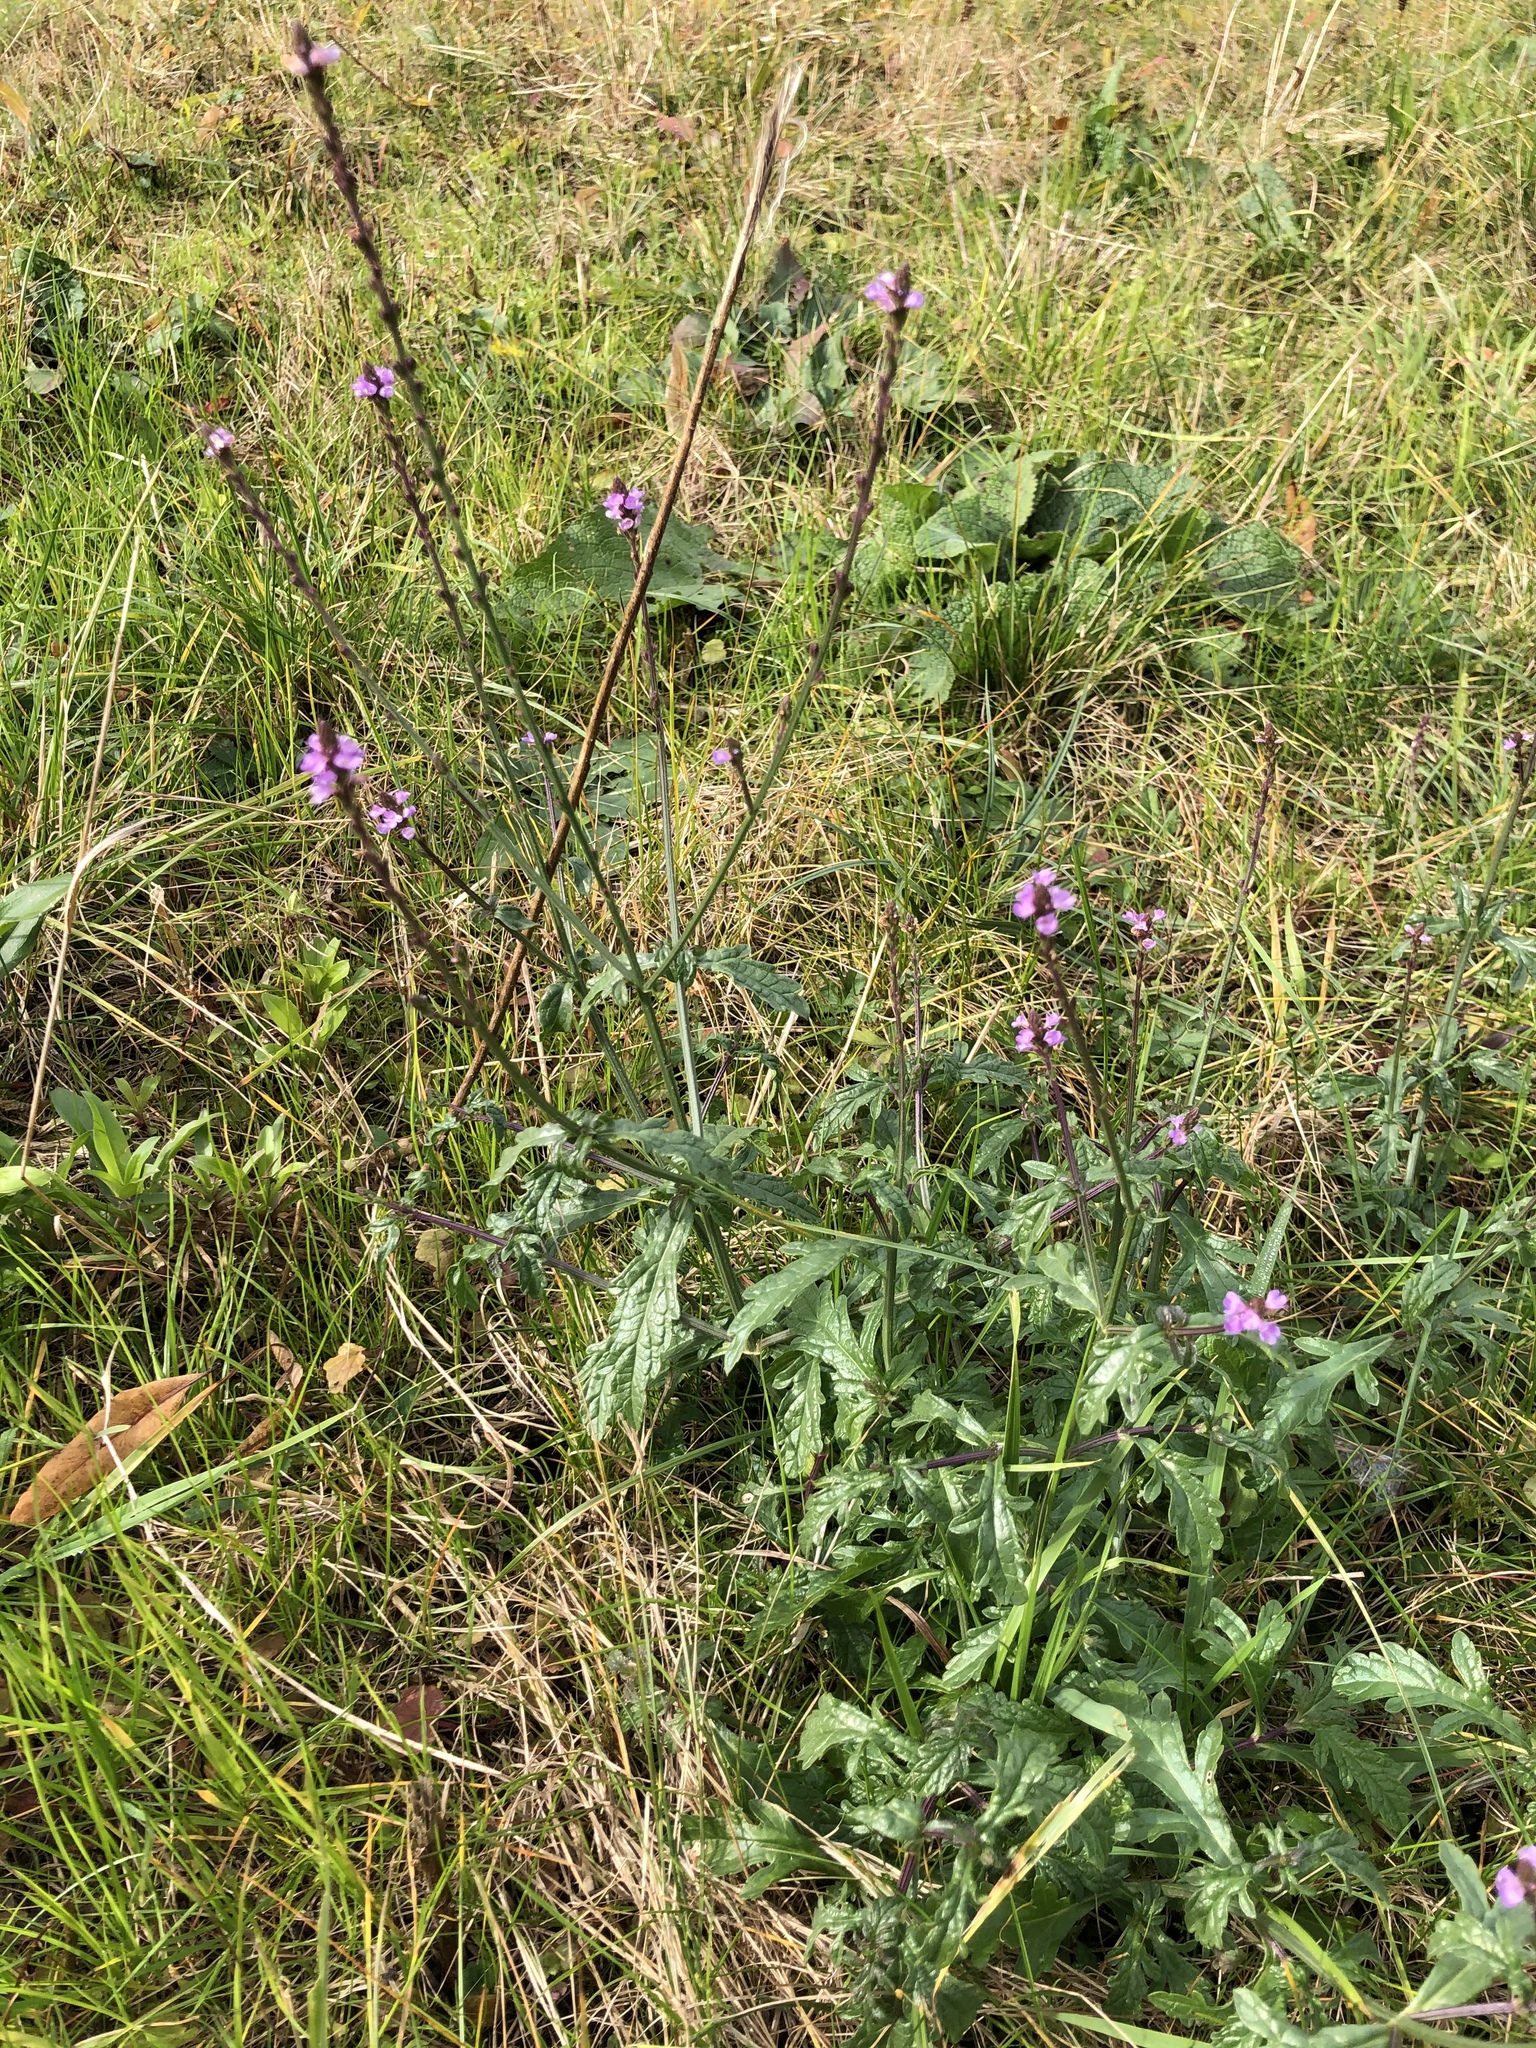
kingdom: Plantae
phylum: Tracheophyta
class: Magnoliopsida
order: Lamiales
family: Verbenaceae
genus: Verbena
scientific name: Verbena officinalis
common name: Vervain
